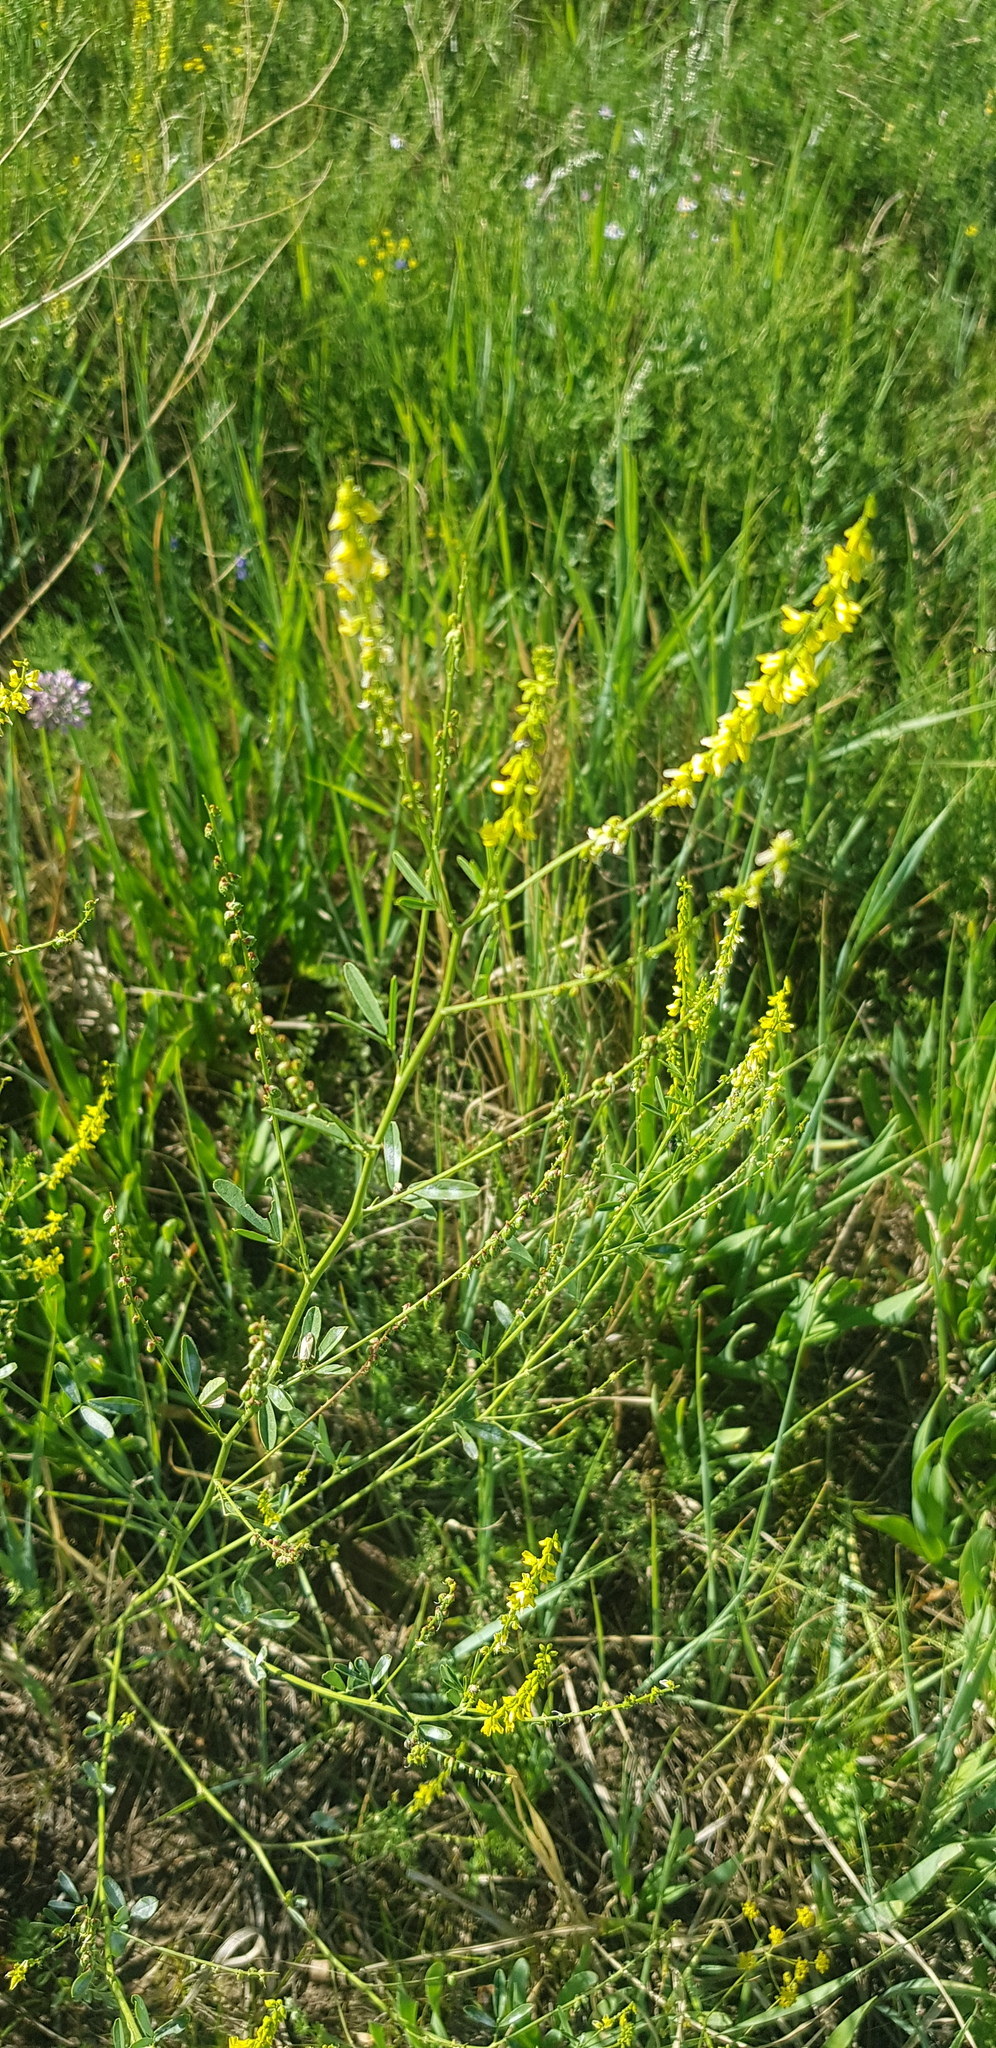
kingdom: Plantae
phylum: Tracheophyta
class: Magnoliopsida
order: Fabales
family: Fabaceae
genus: Melilotus
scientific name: Melilotus officinalis
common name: Sweetclover
